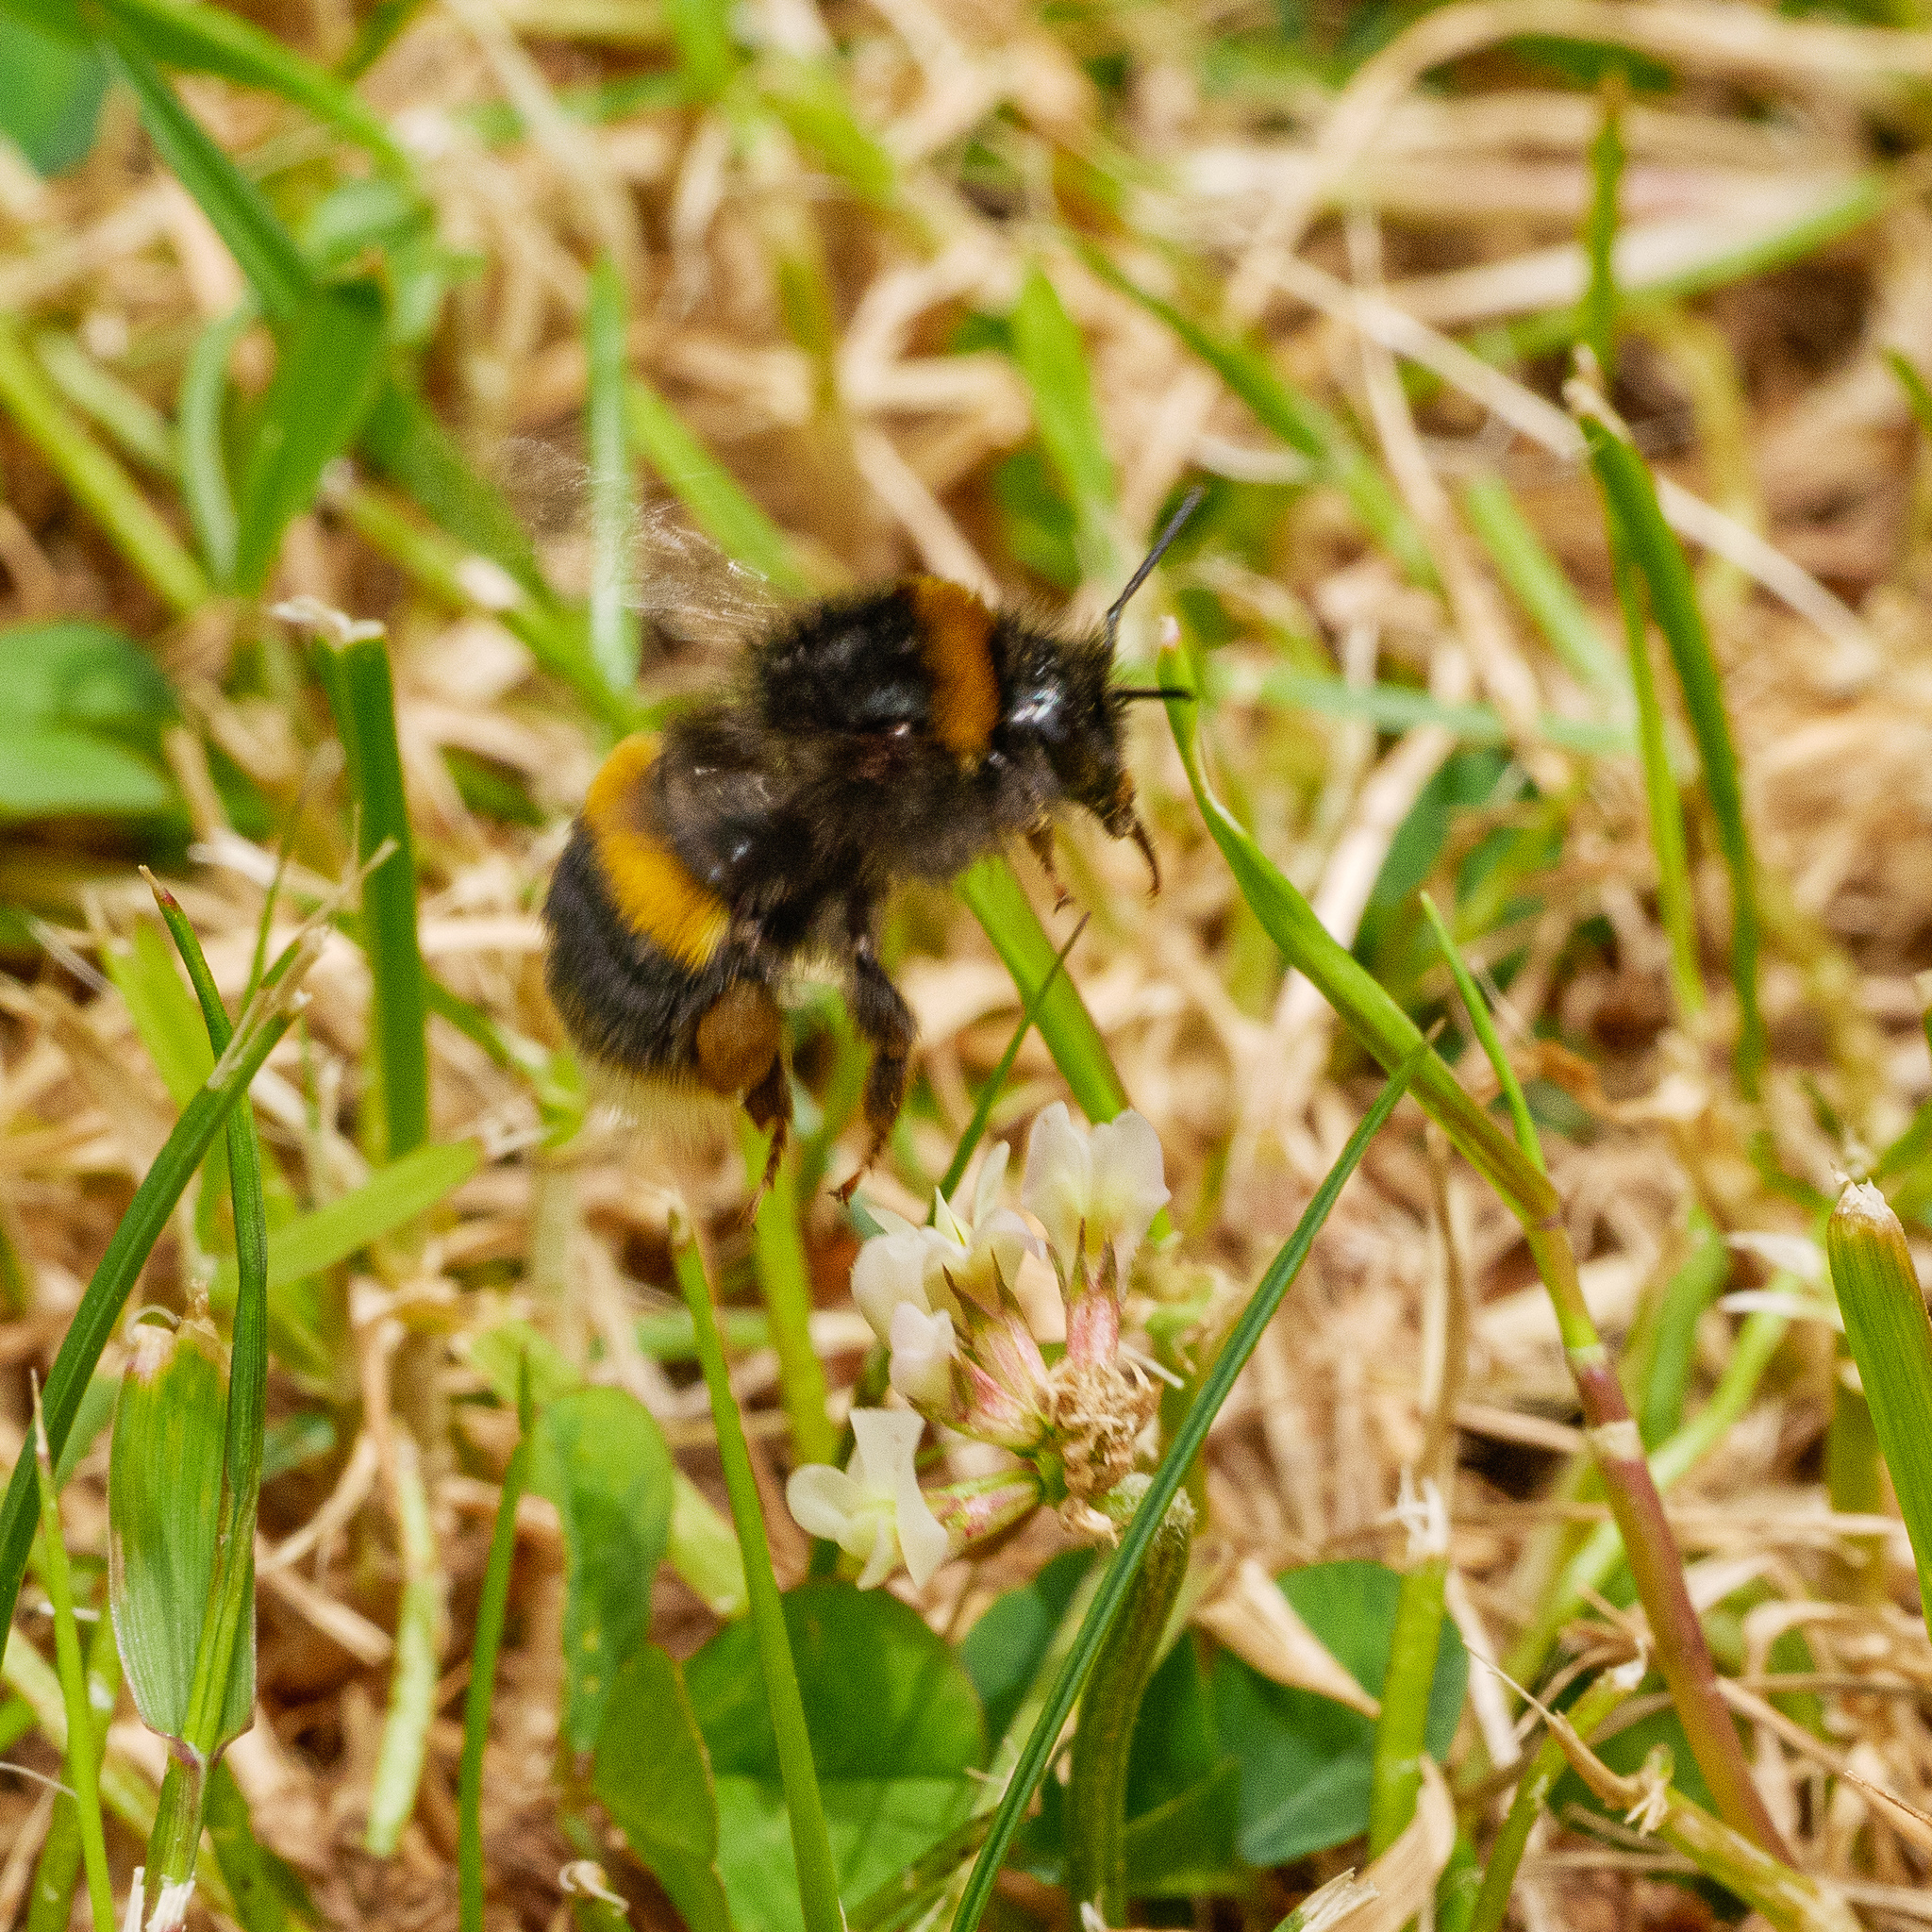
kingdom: Animalia
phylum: Arthropoda
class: Insecta
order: Hymenoptera
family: Apidae
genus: Bombus
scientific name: Bombus terrestris
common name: Buff-tailed bumblebee
